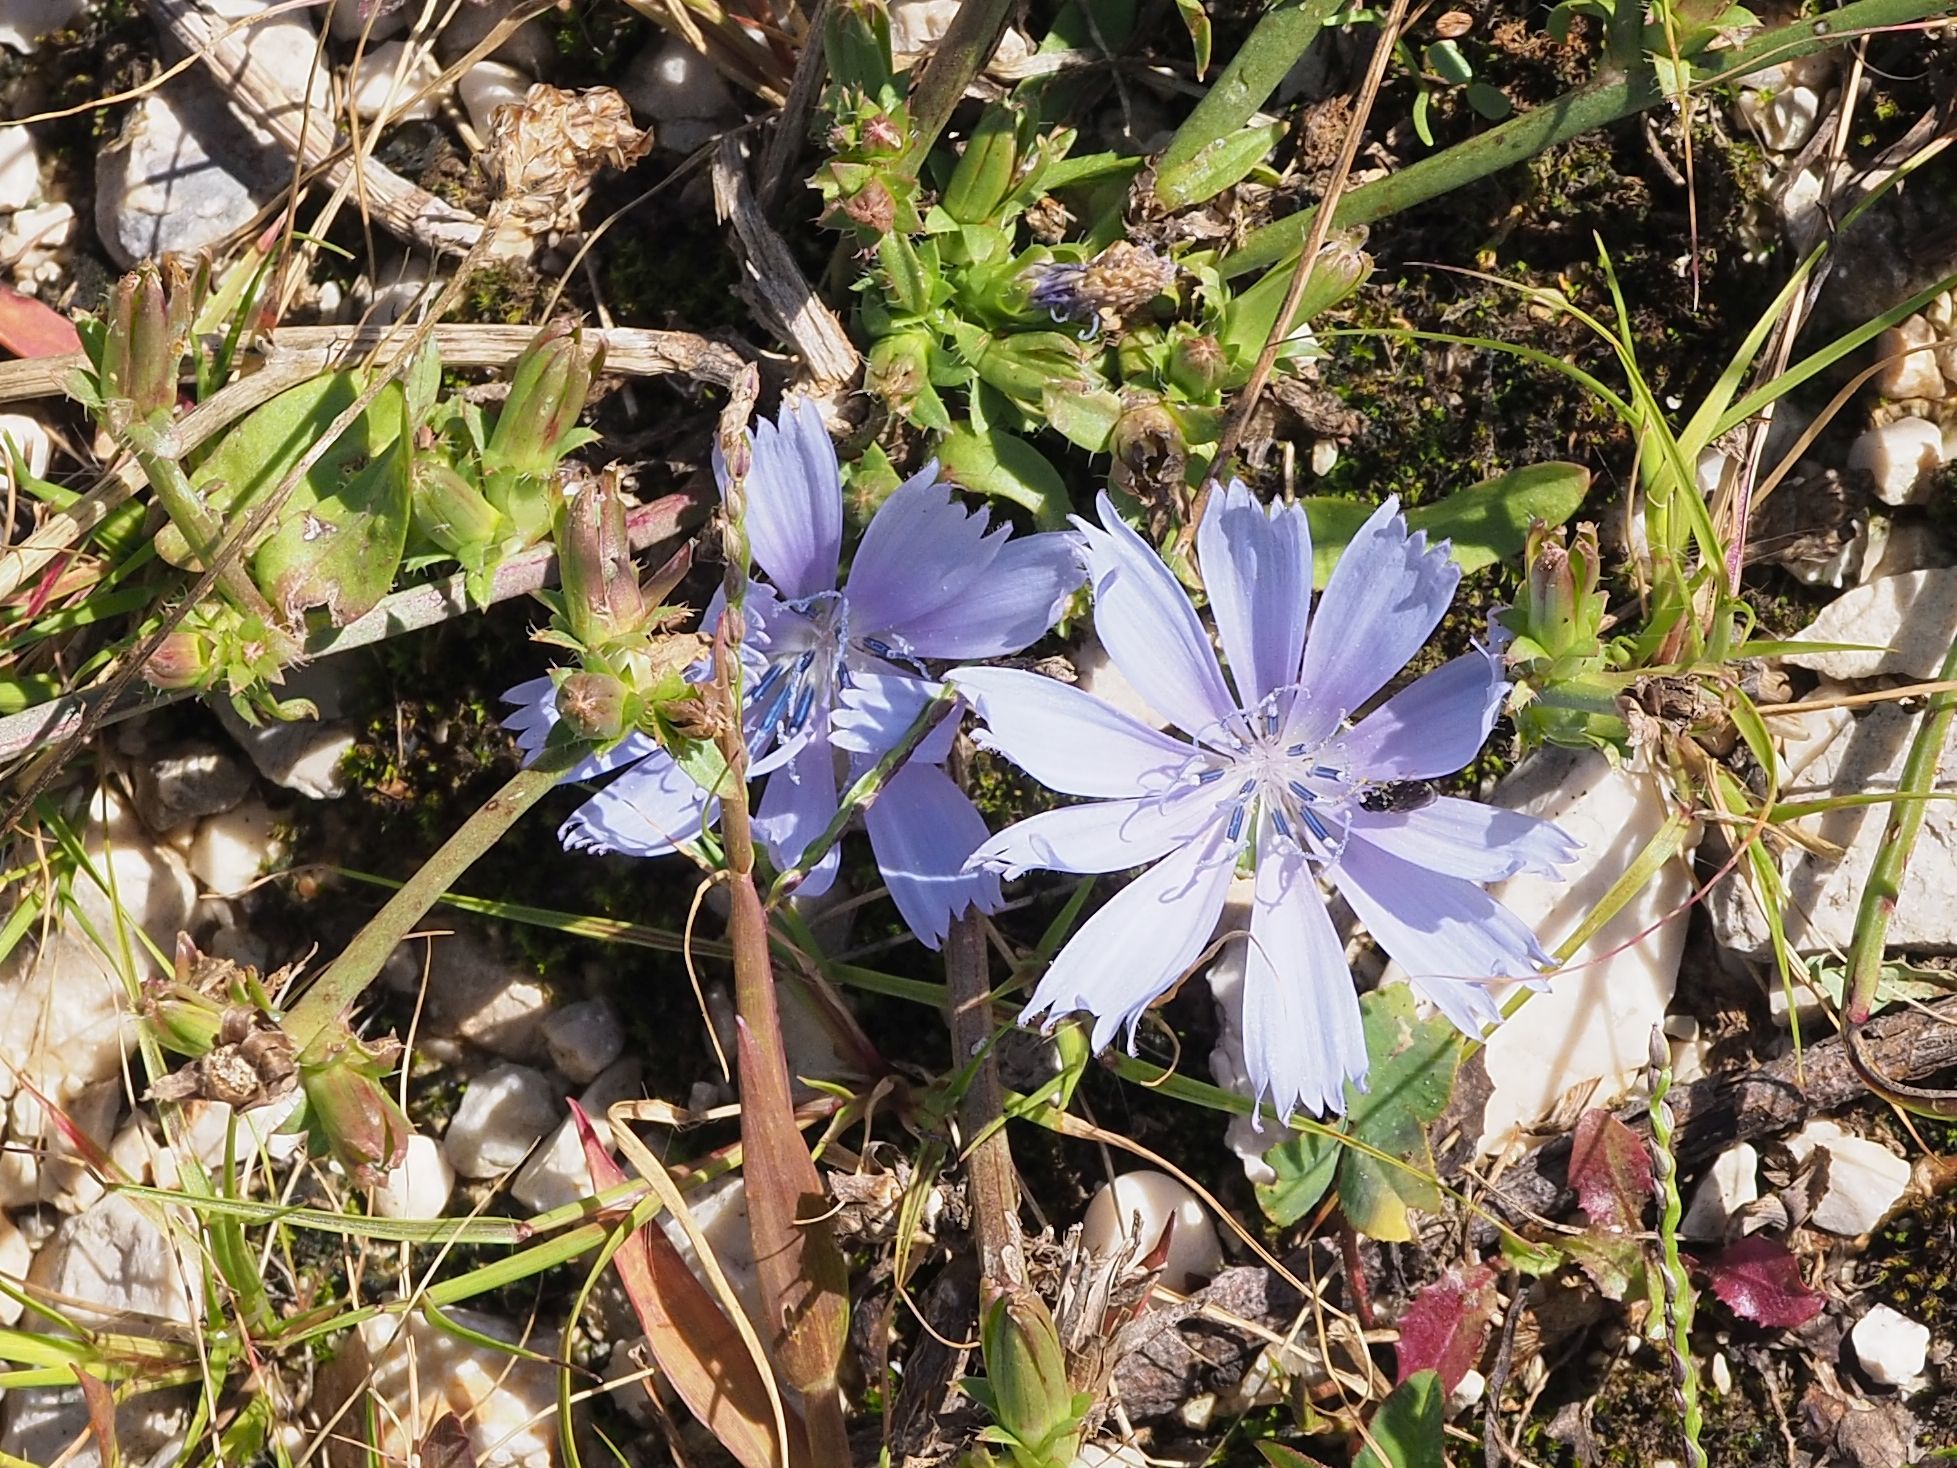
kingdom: Plantae
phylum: Tracheophyta
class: Magnoliopsida
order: Asterales
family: Asteraceae
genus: Cichorium
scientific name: Cichorium intybus
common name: Chicory
